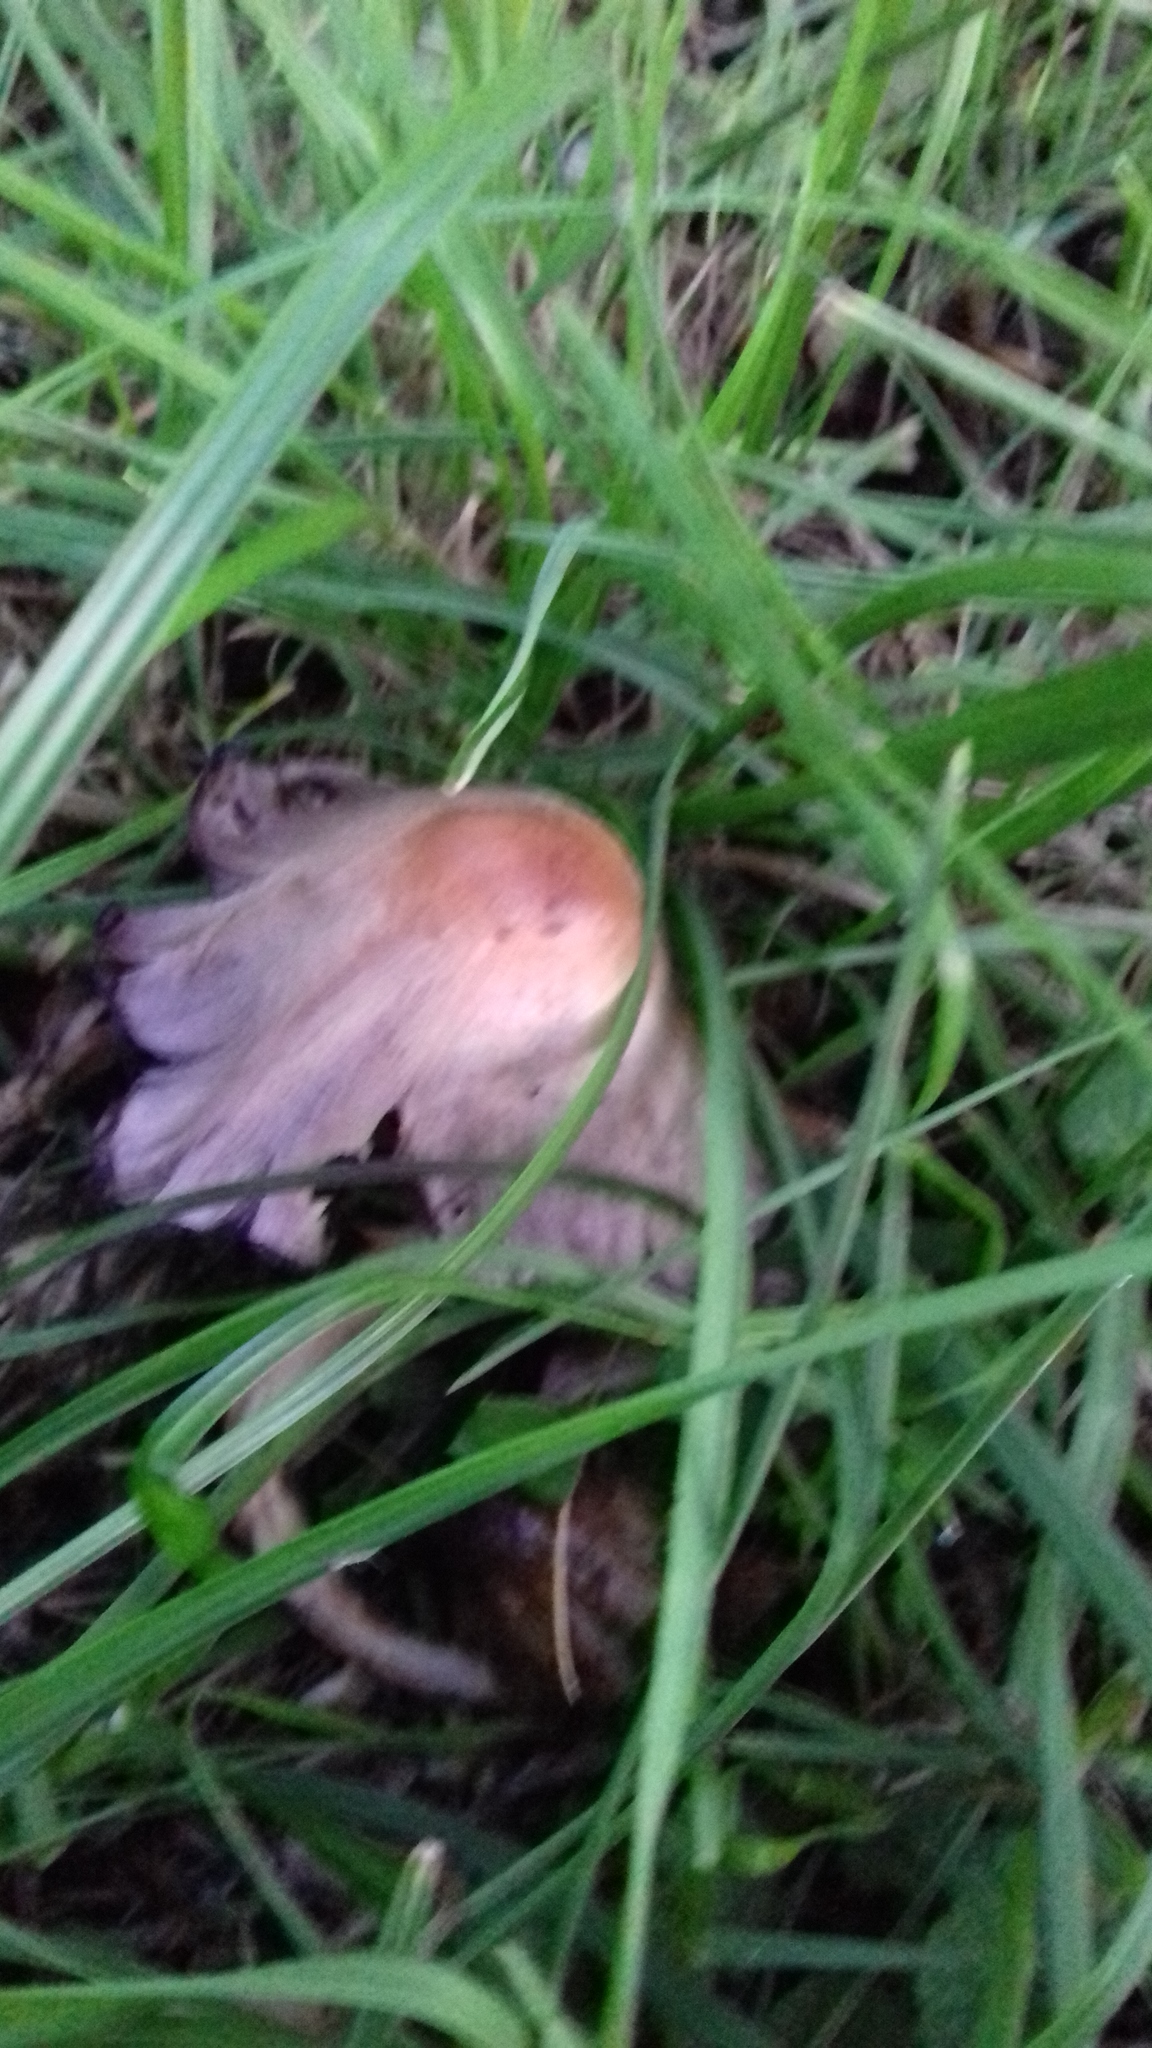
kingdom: Fungi
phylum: Basidiomycota
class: Agaricomycetes
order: Agaricales
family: Psathyrellaceae
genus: Coprinopsis
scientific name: Coprinopsis atramentaria
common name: Common ink-cap
